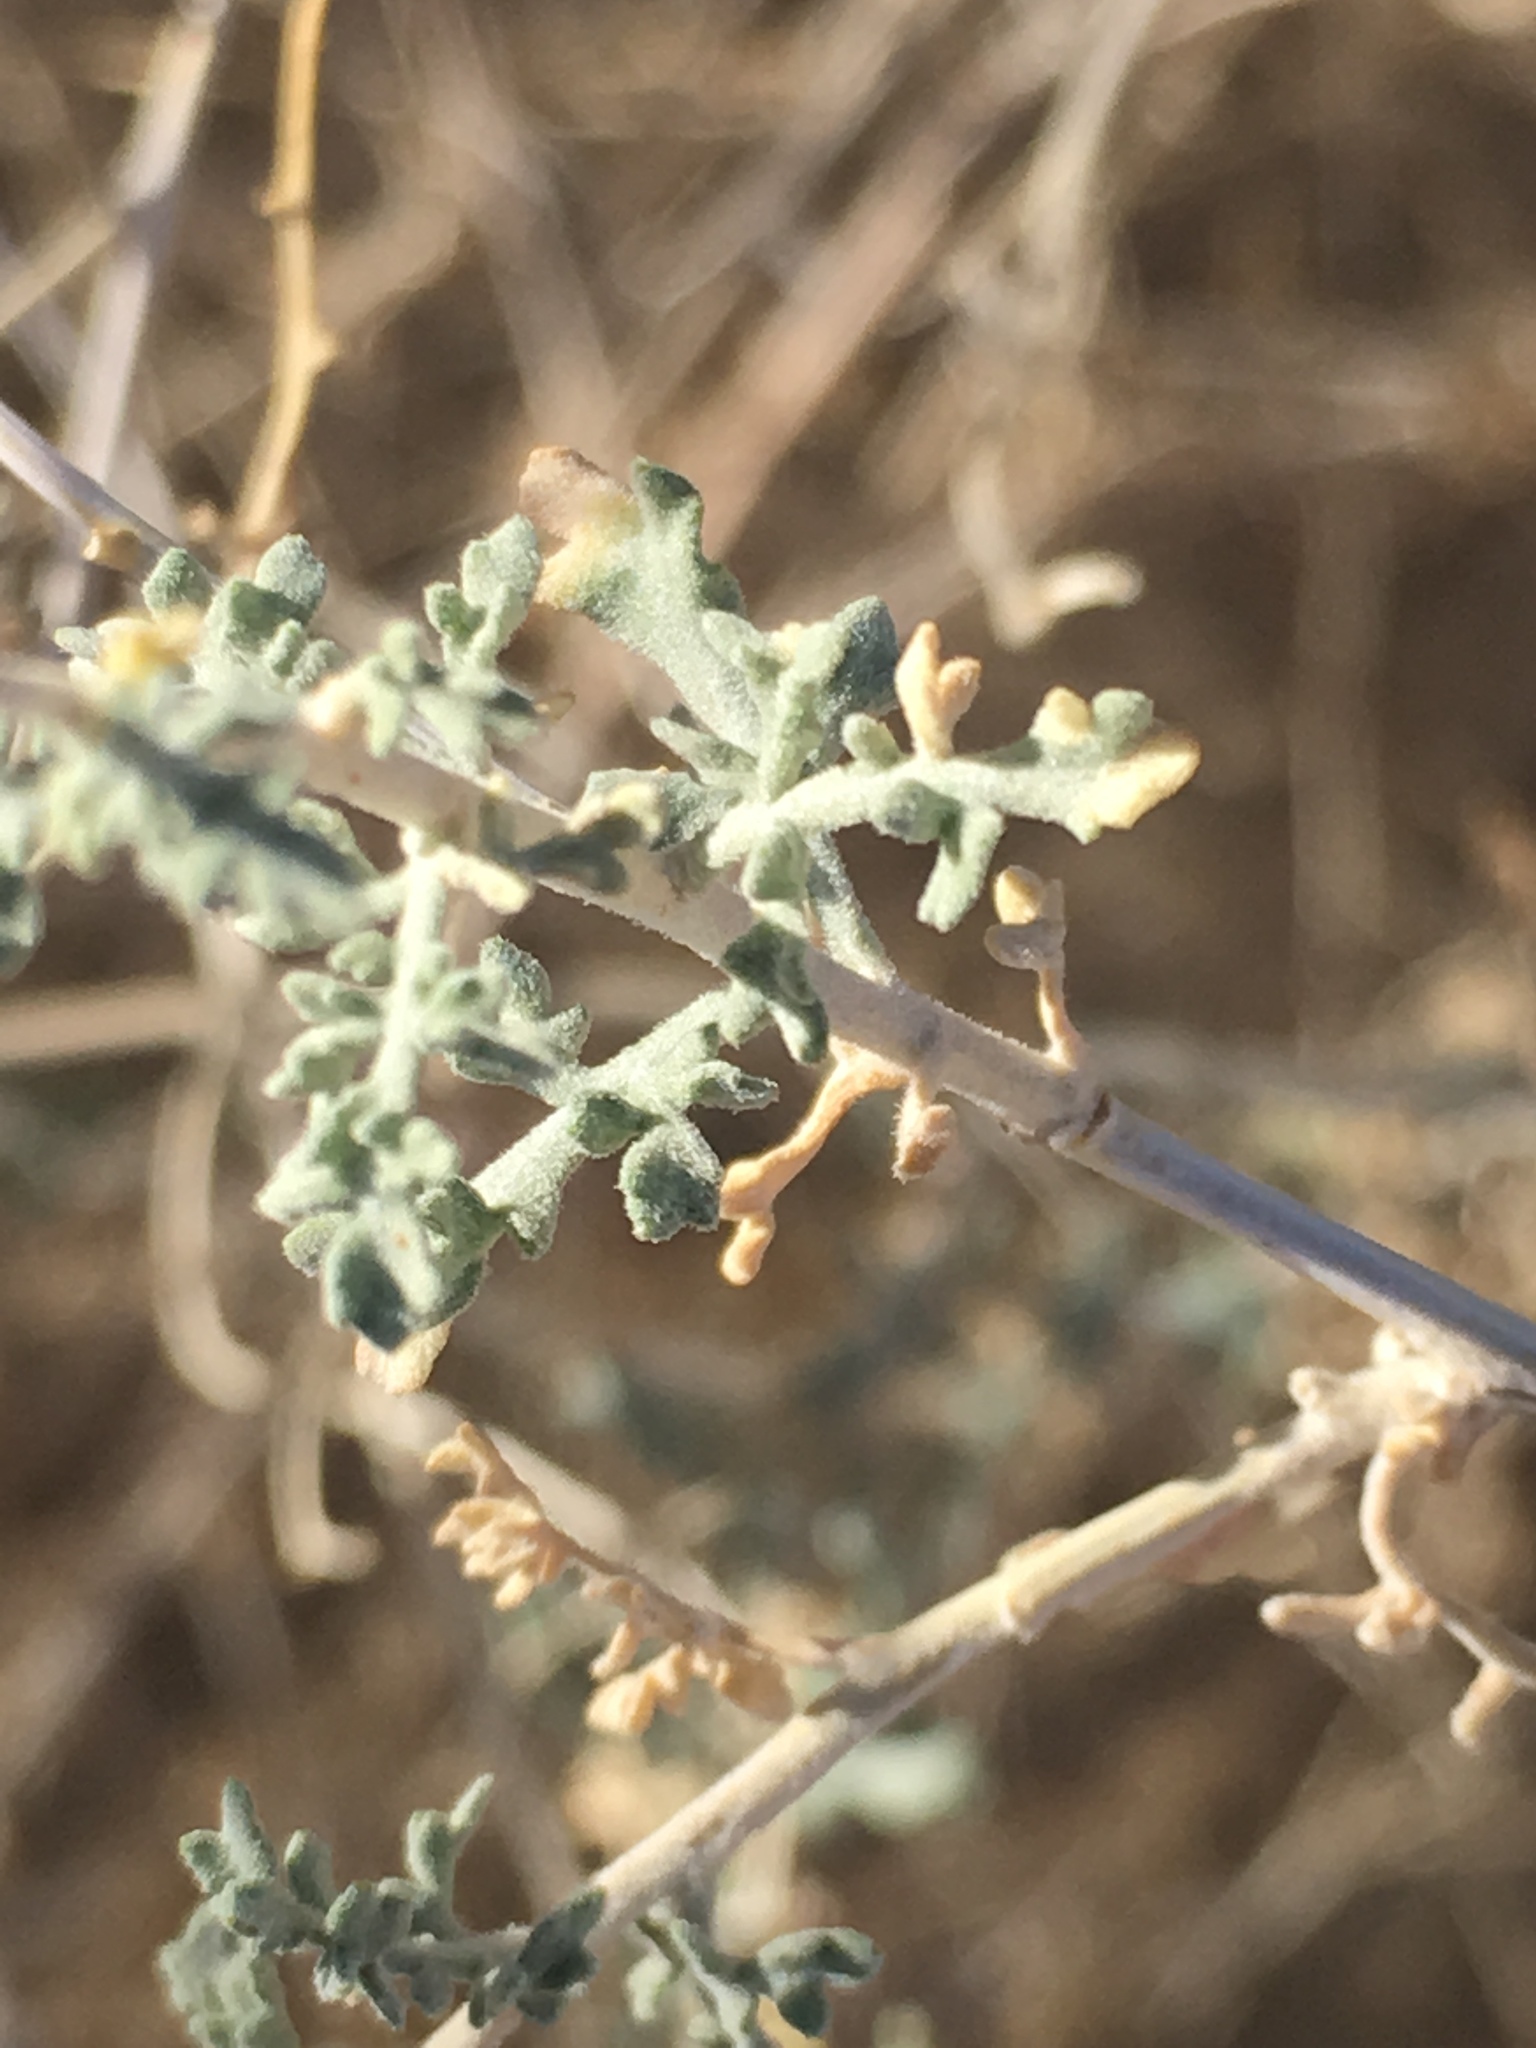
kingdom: Plantae
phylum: Tracheophyta
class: Magnoliopsida
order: Asterales
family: Asteraceae
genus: Ambrosia
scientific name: Ambrosia dumosa
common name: Bur-sage
